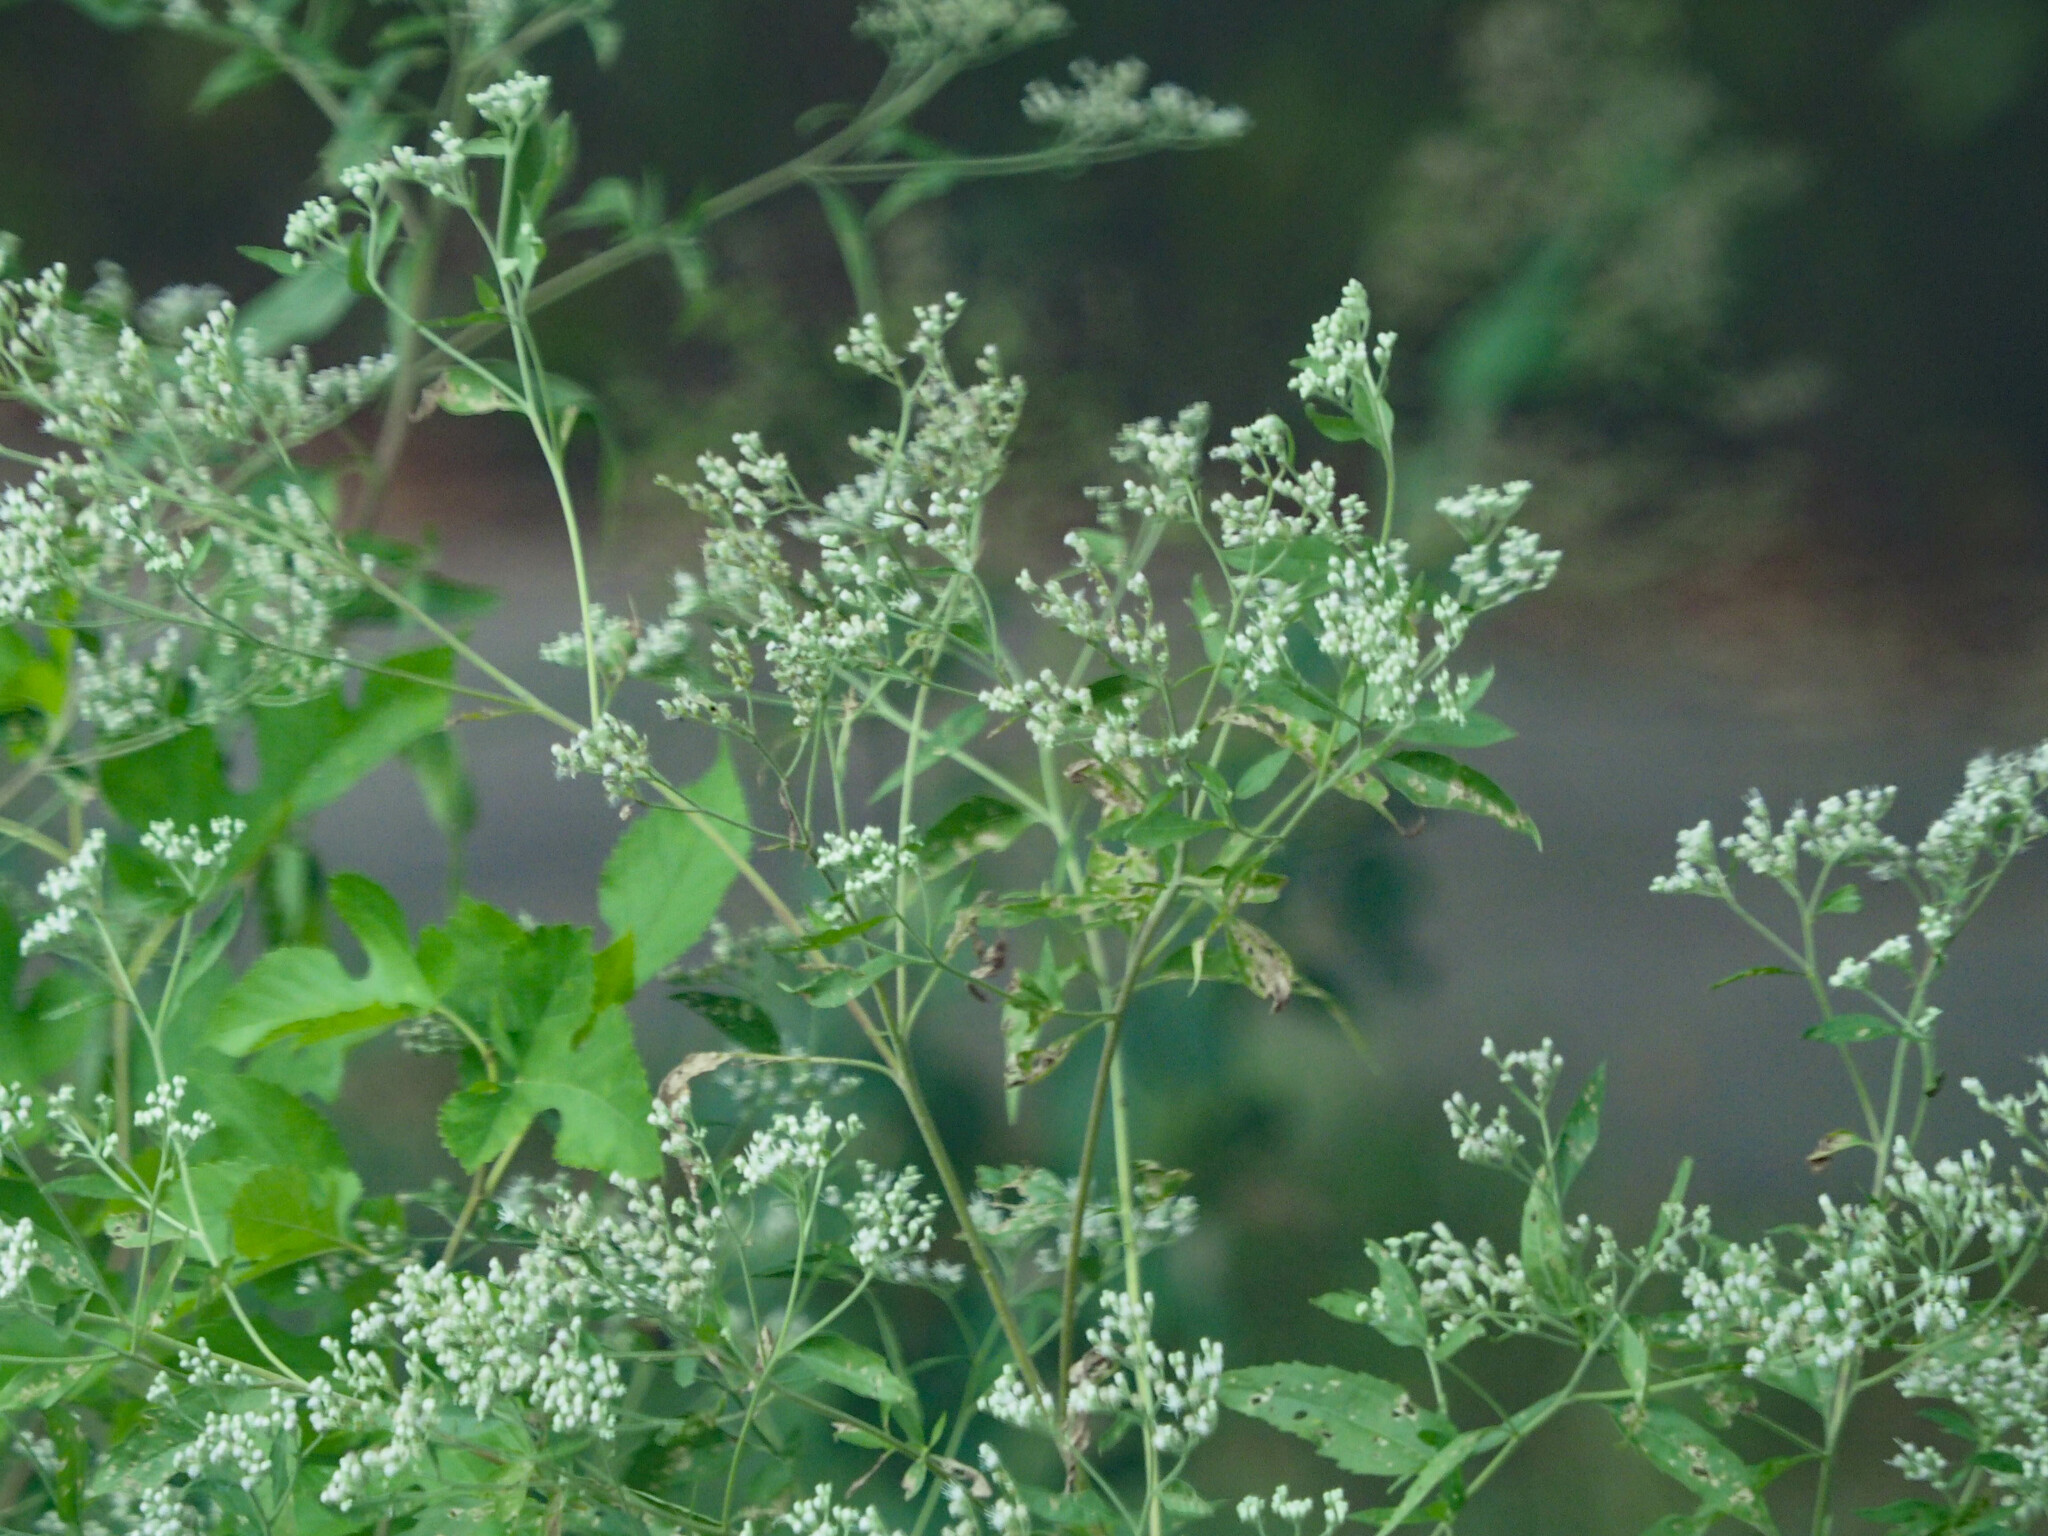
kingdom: Plantae
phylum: Tracheophyta
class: Magnoliopsida
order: Asterales
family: Asteraceae
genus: Eupatorium
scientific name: Eupatorium serotinum
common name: Late boneset
